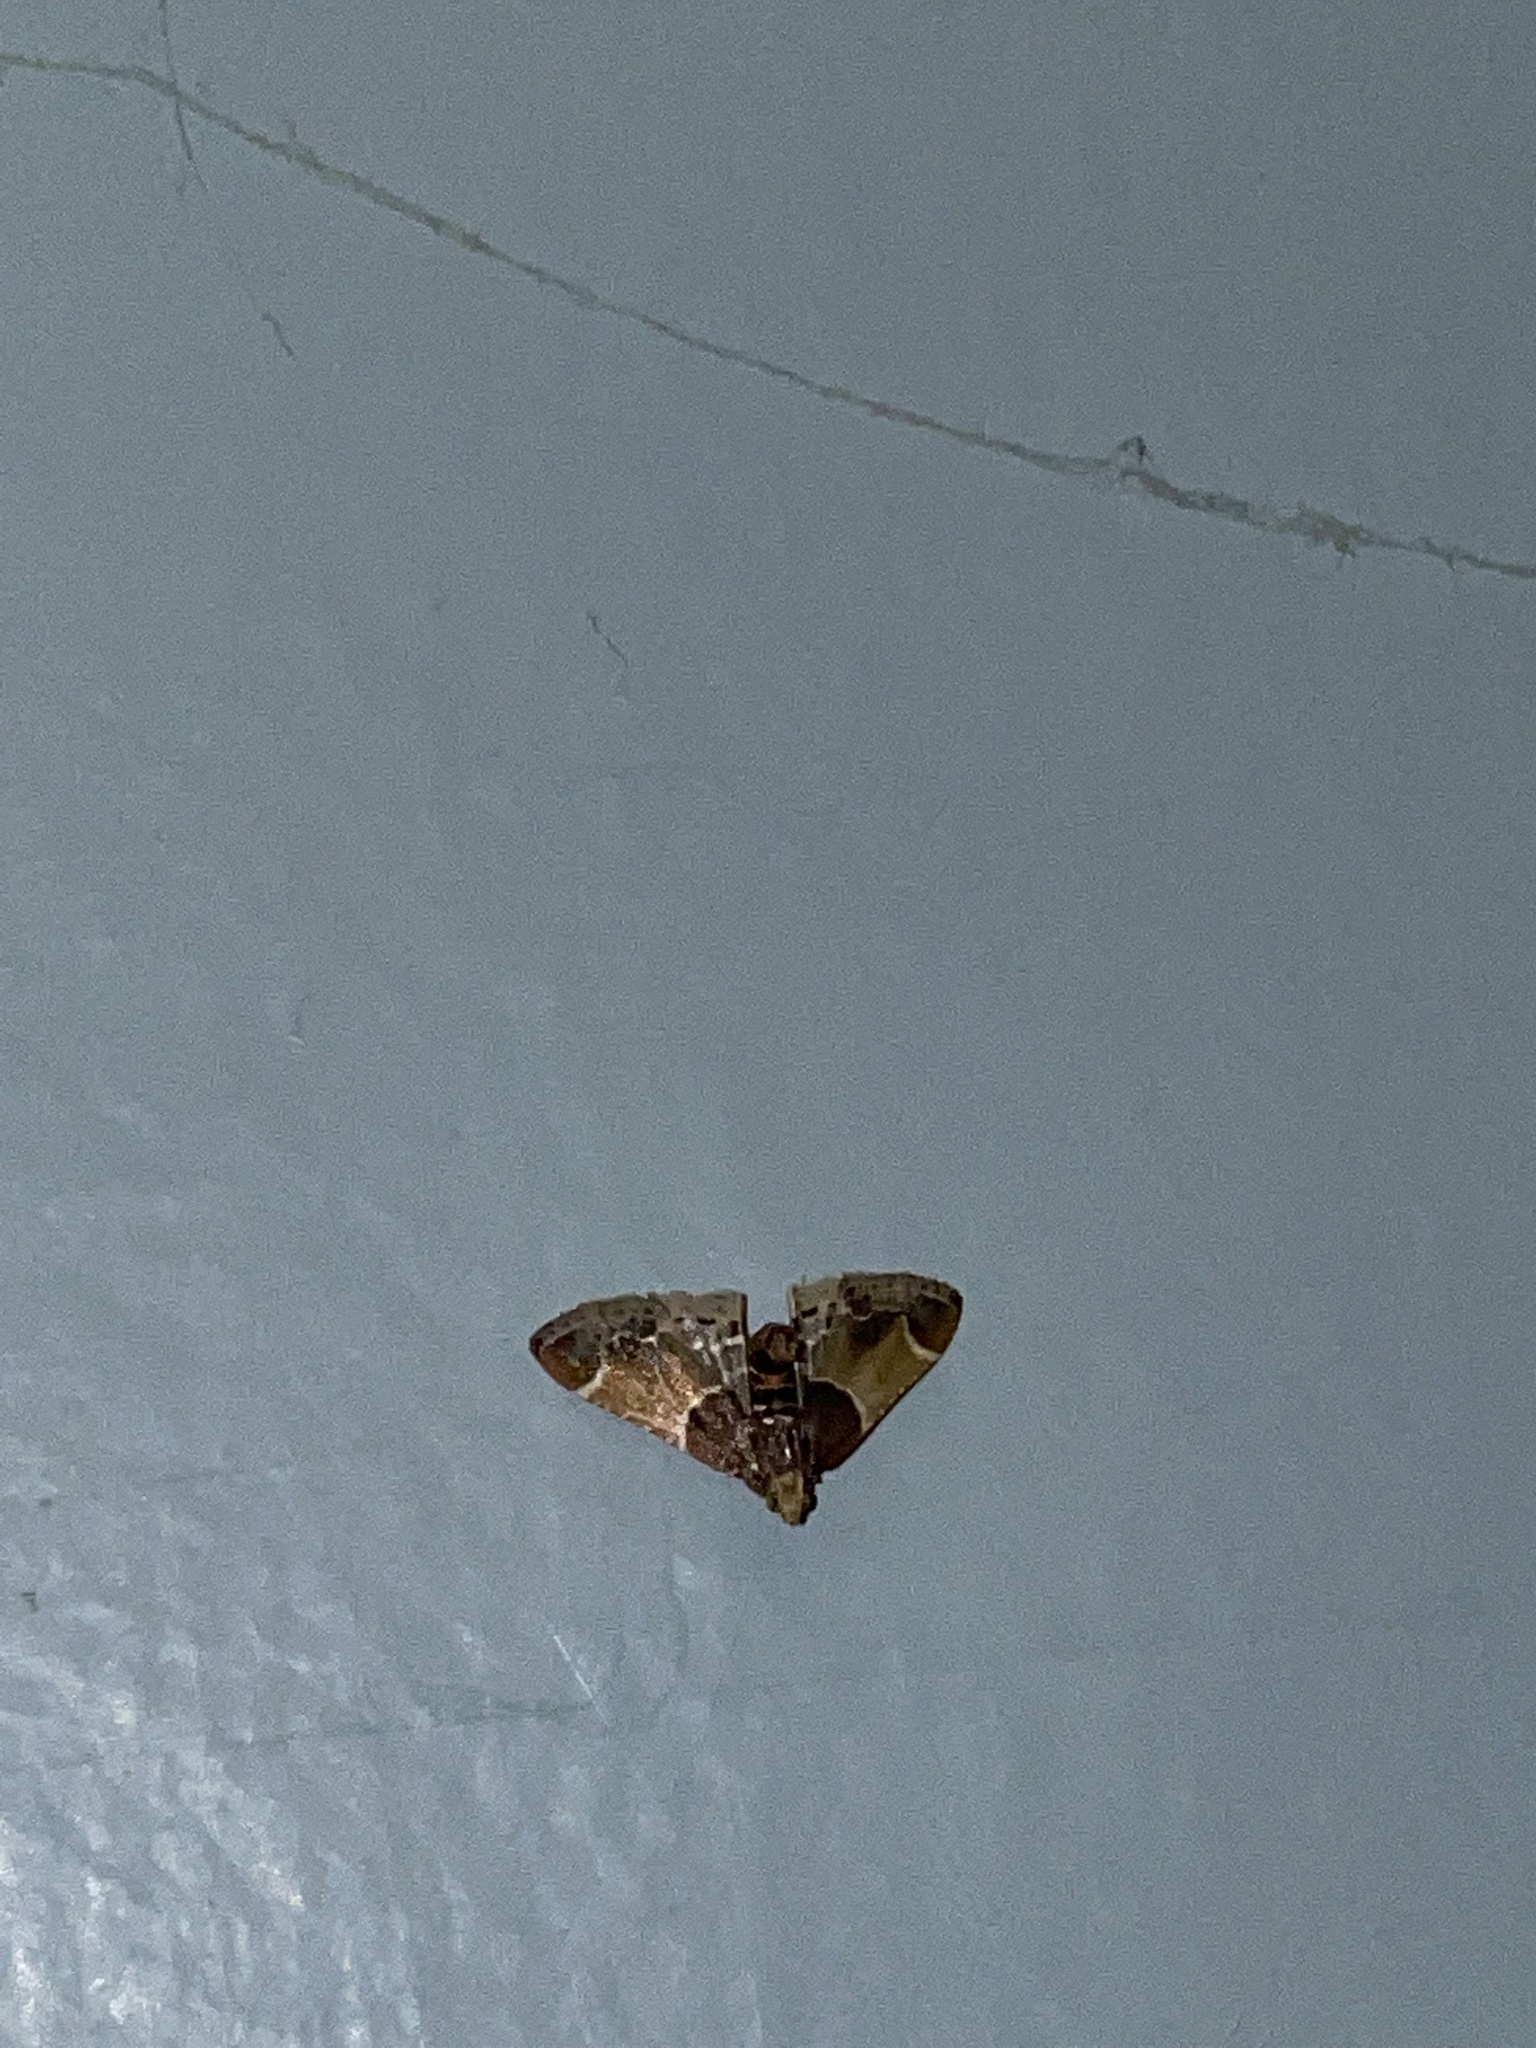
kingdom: Animalia
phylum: Arthropoda
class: Insecta
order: Lepidoptera
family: Pyralidae
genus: Pyralis
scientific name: Pyralis farinalis
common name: Meal moth
